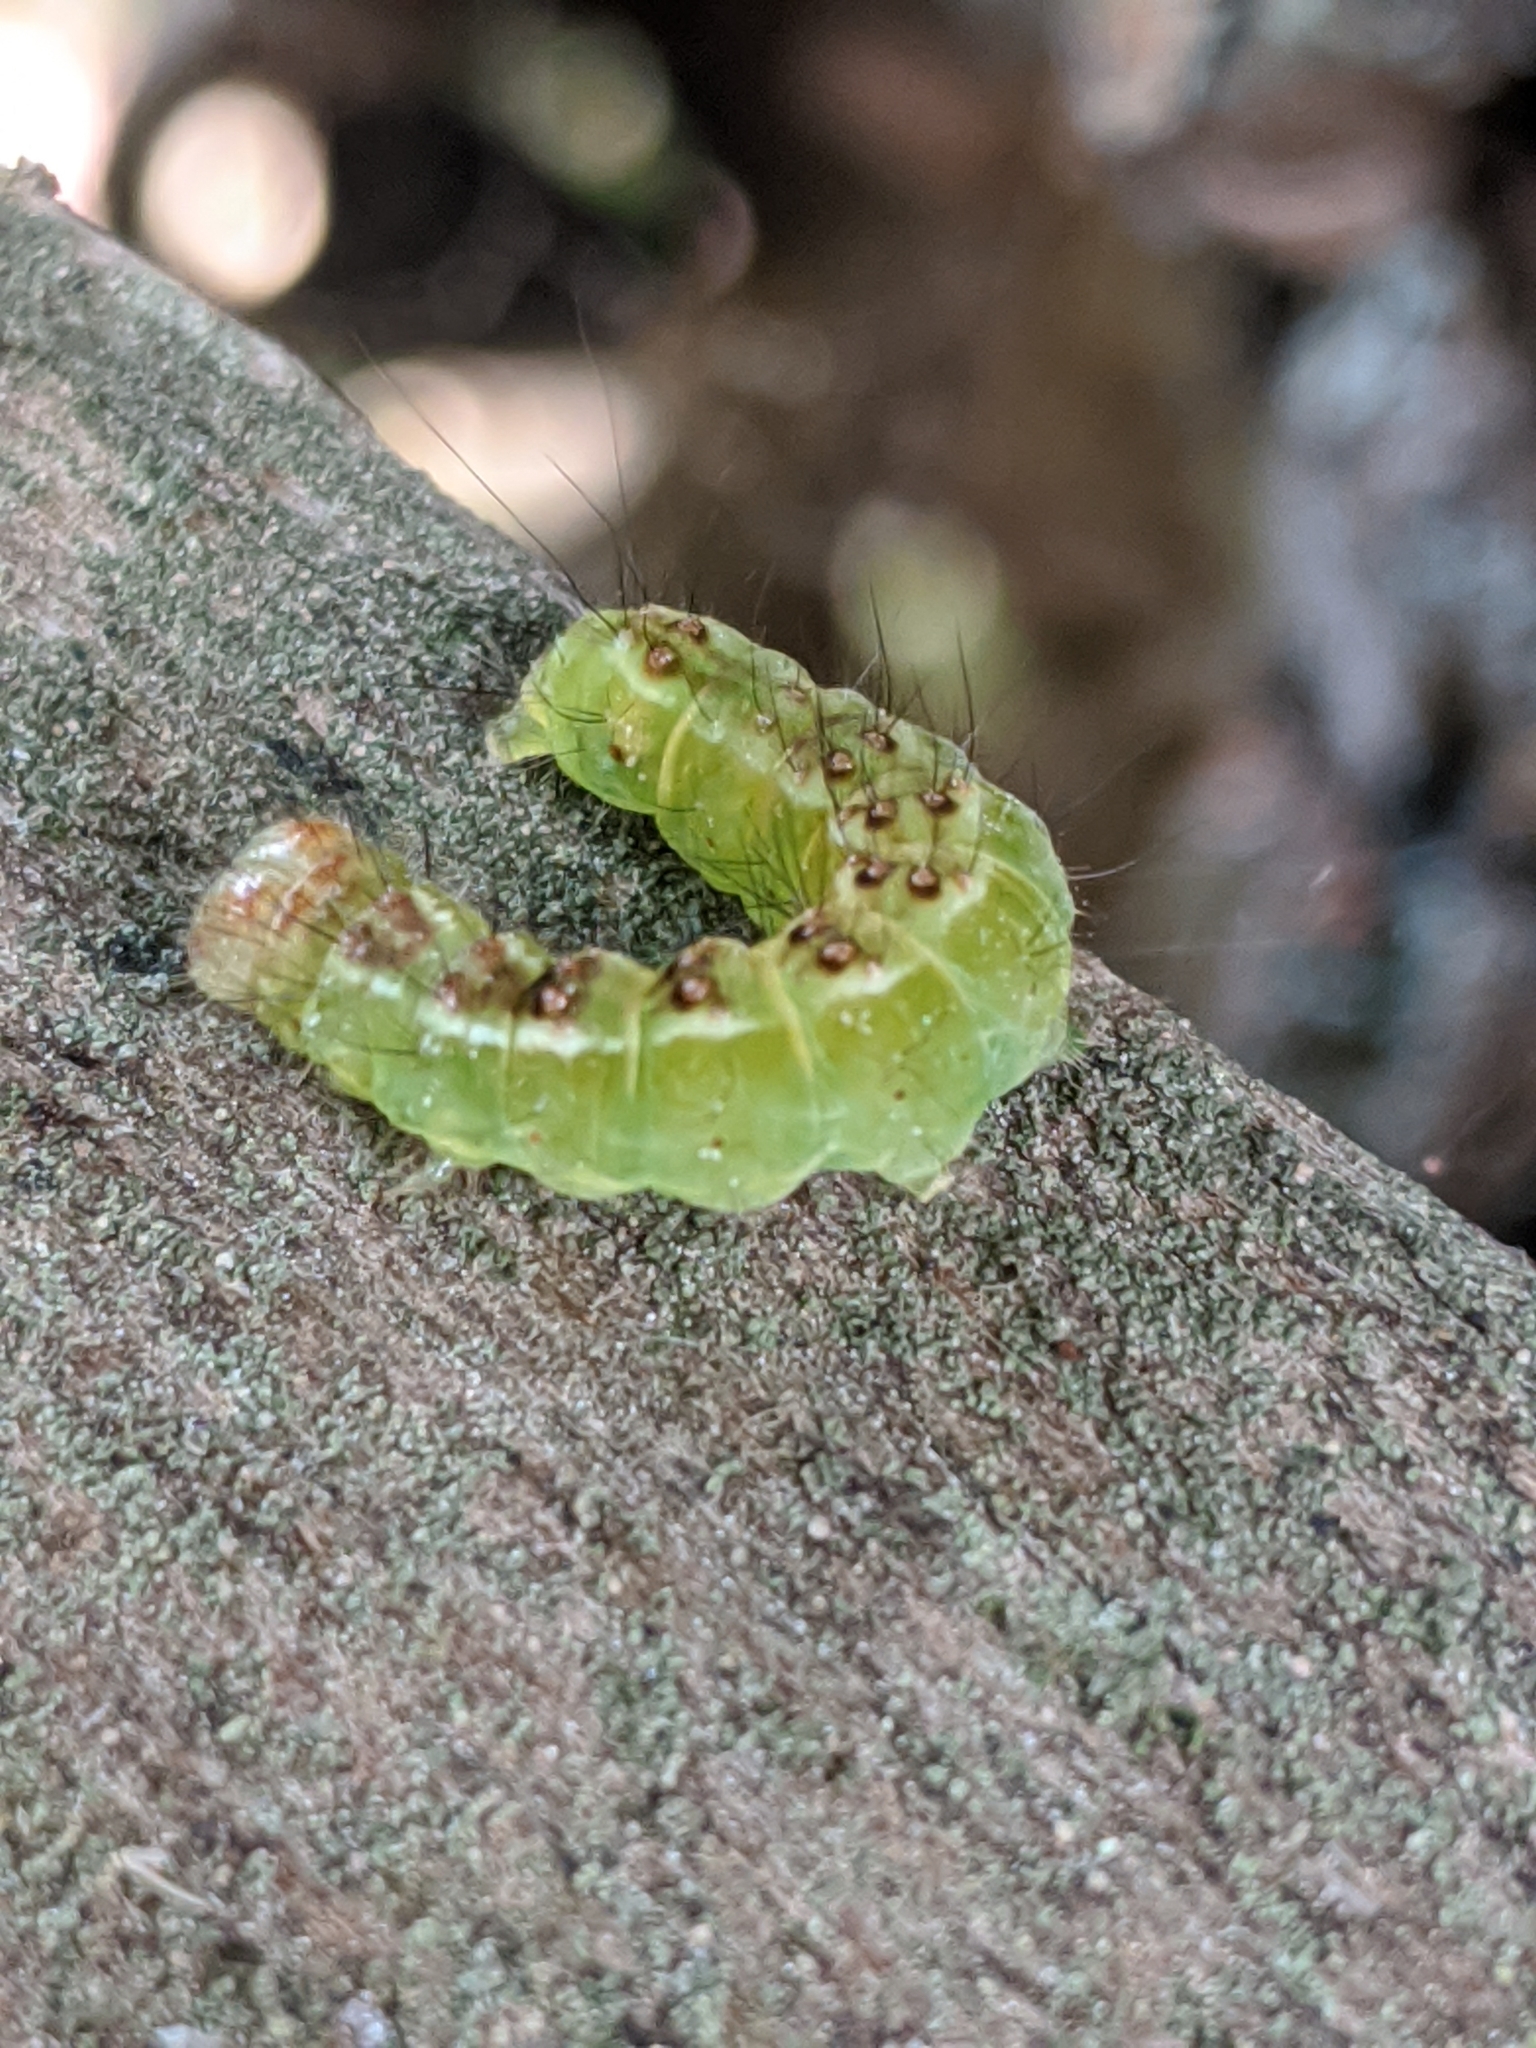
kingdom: Animalia
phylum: Arthropoda
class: Insecta
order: Lepidoptera
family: Noctuidae
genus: Acronicta
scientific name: Acronicta fragilis
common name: Fragile dagger
